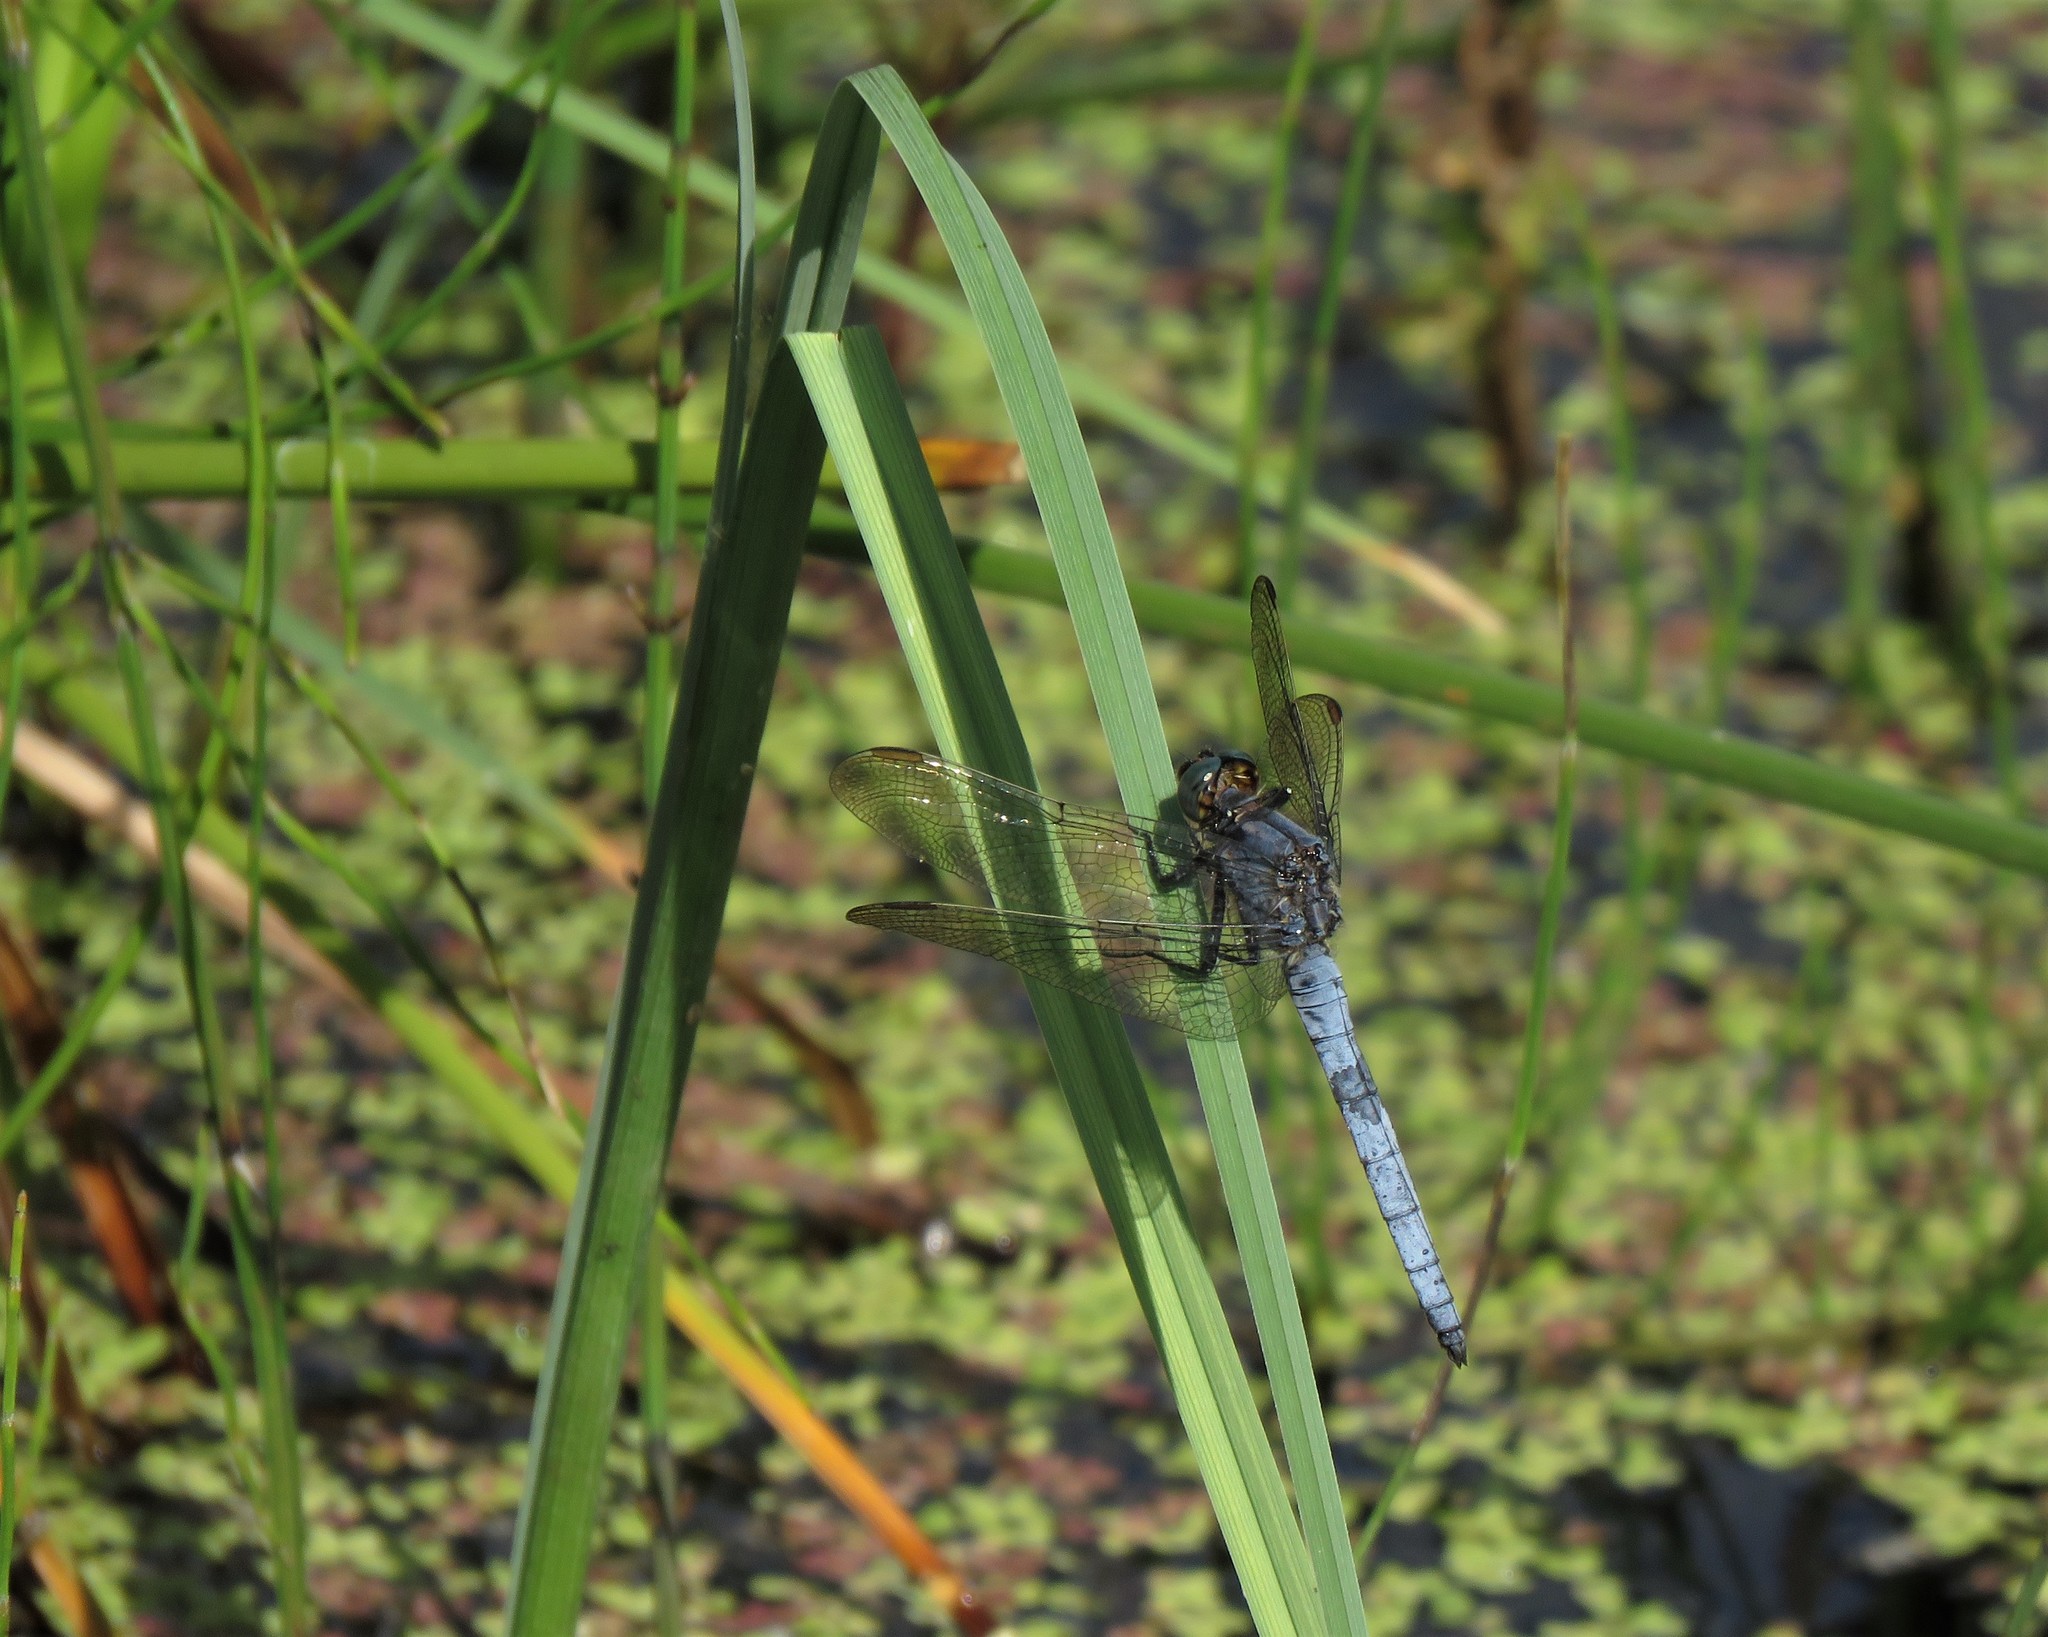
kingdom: Animalia
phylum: Arthropoda
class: Insecta
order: Odonata
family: Libellulidae
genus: Orthetrum
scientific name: Orthetrum coerulescens
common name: Keeled skimmer
